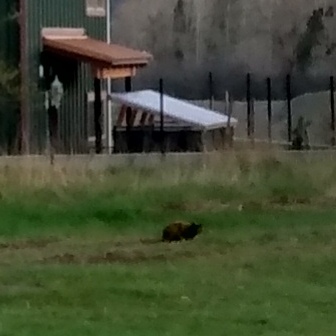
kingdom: Animalia
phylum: Chordata
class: Mammalia
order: Carnivora
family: Felidae
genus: Felis
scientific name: Felis catus
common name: Domestic cat
